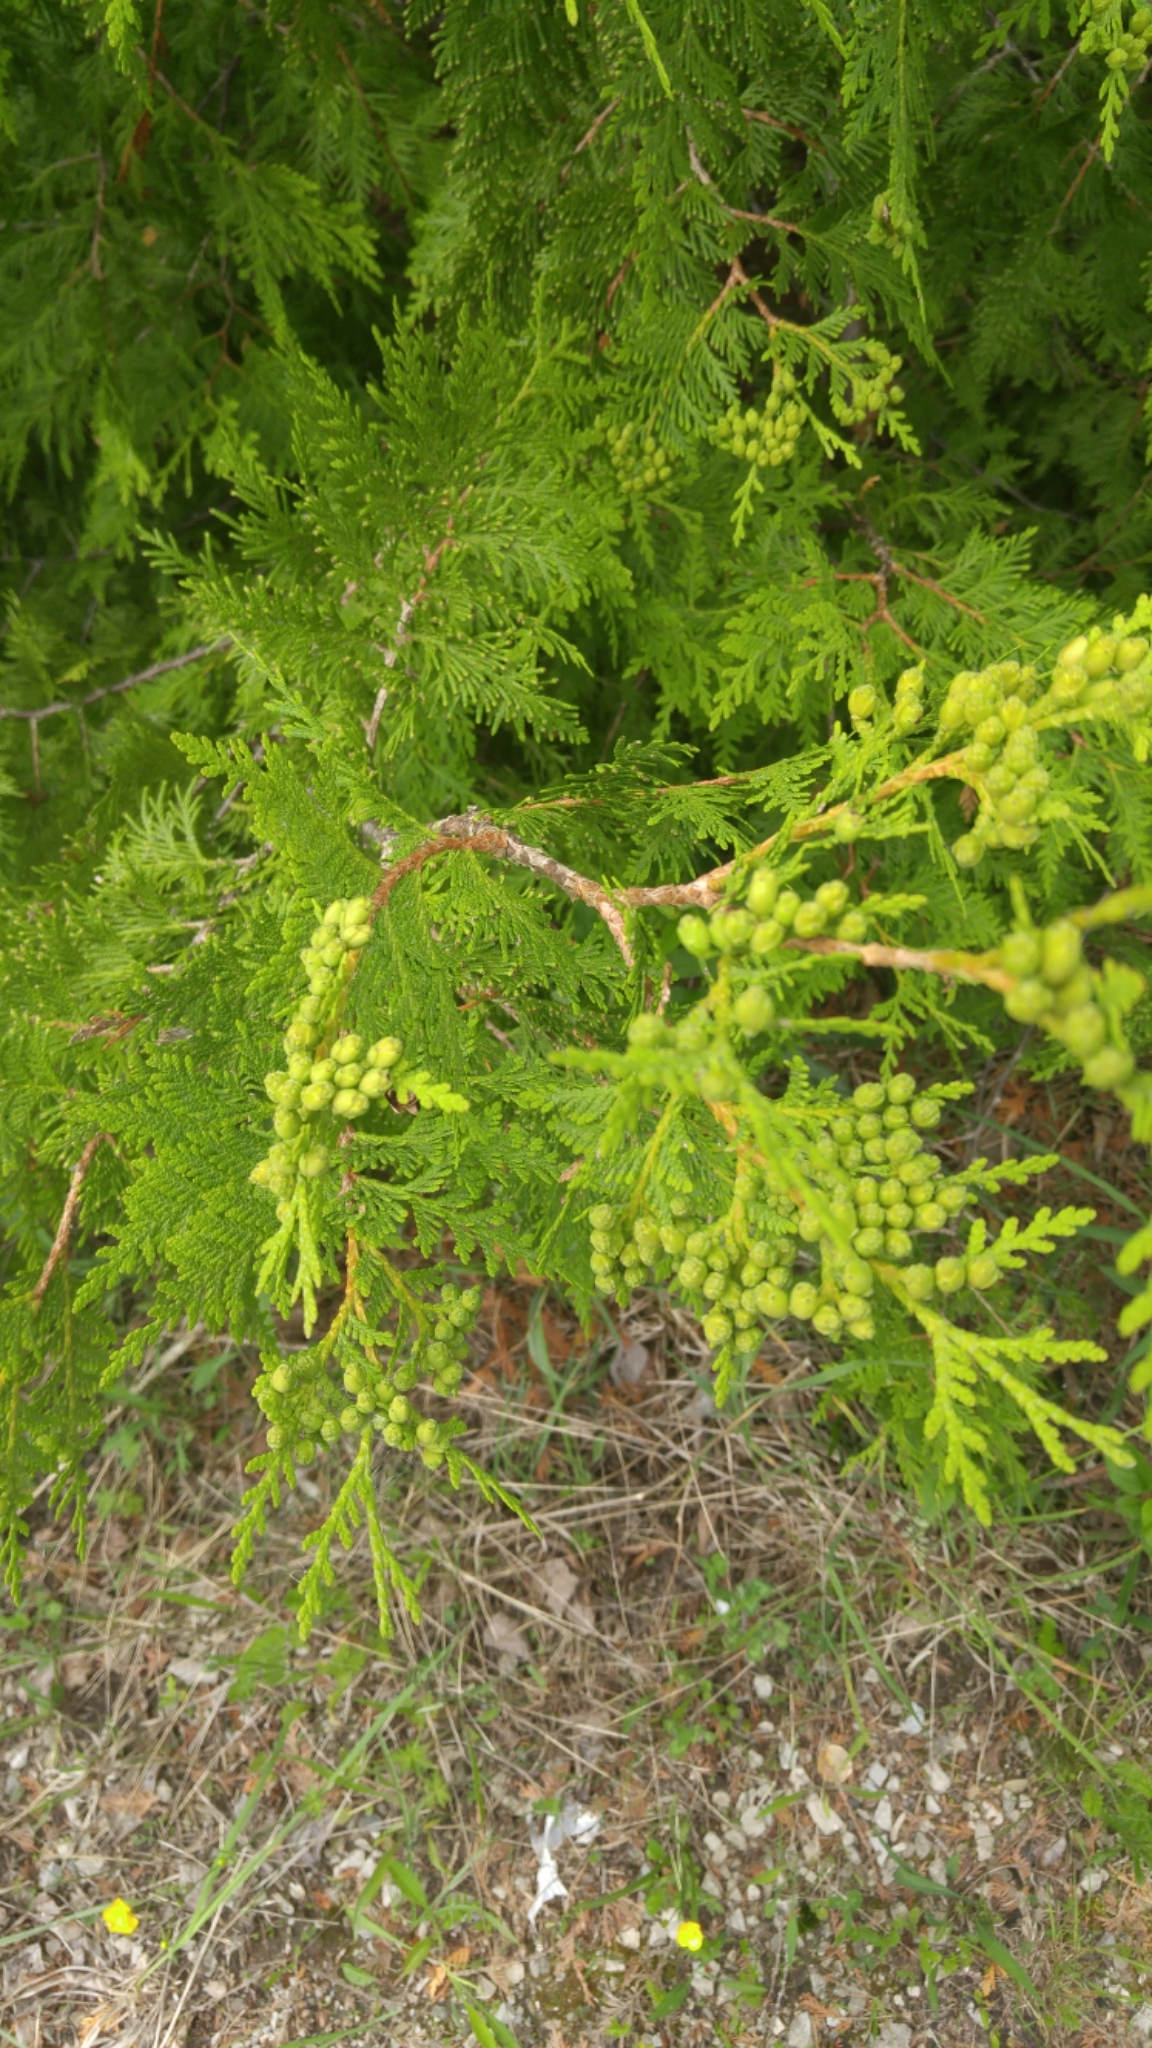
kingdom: Plantae
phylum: Tracheophyta
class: Pinopsida
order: Pinales
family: Cupressaceae
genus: Thuja
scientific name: Thuja occidentalis
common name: Northern white-cedar
